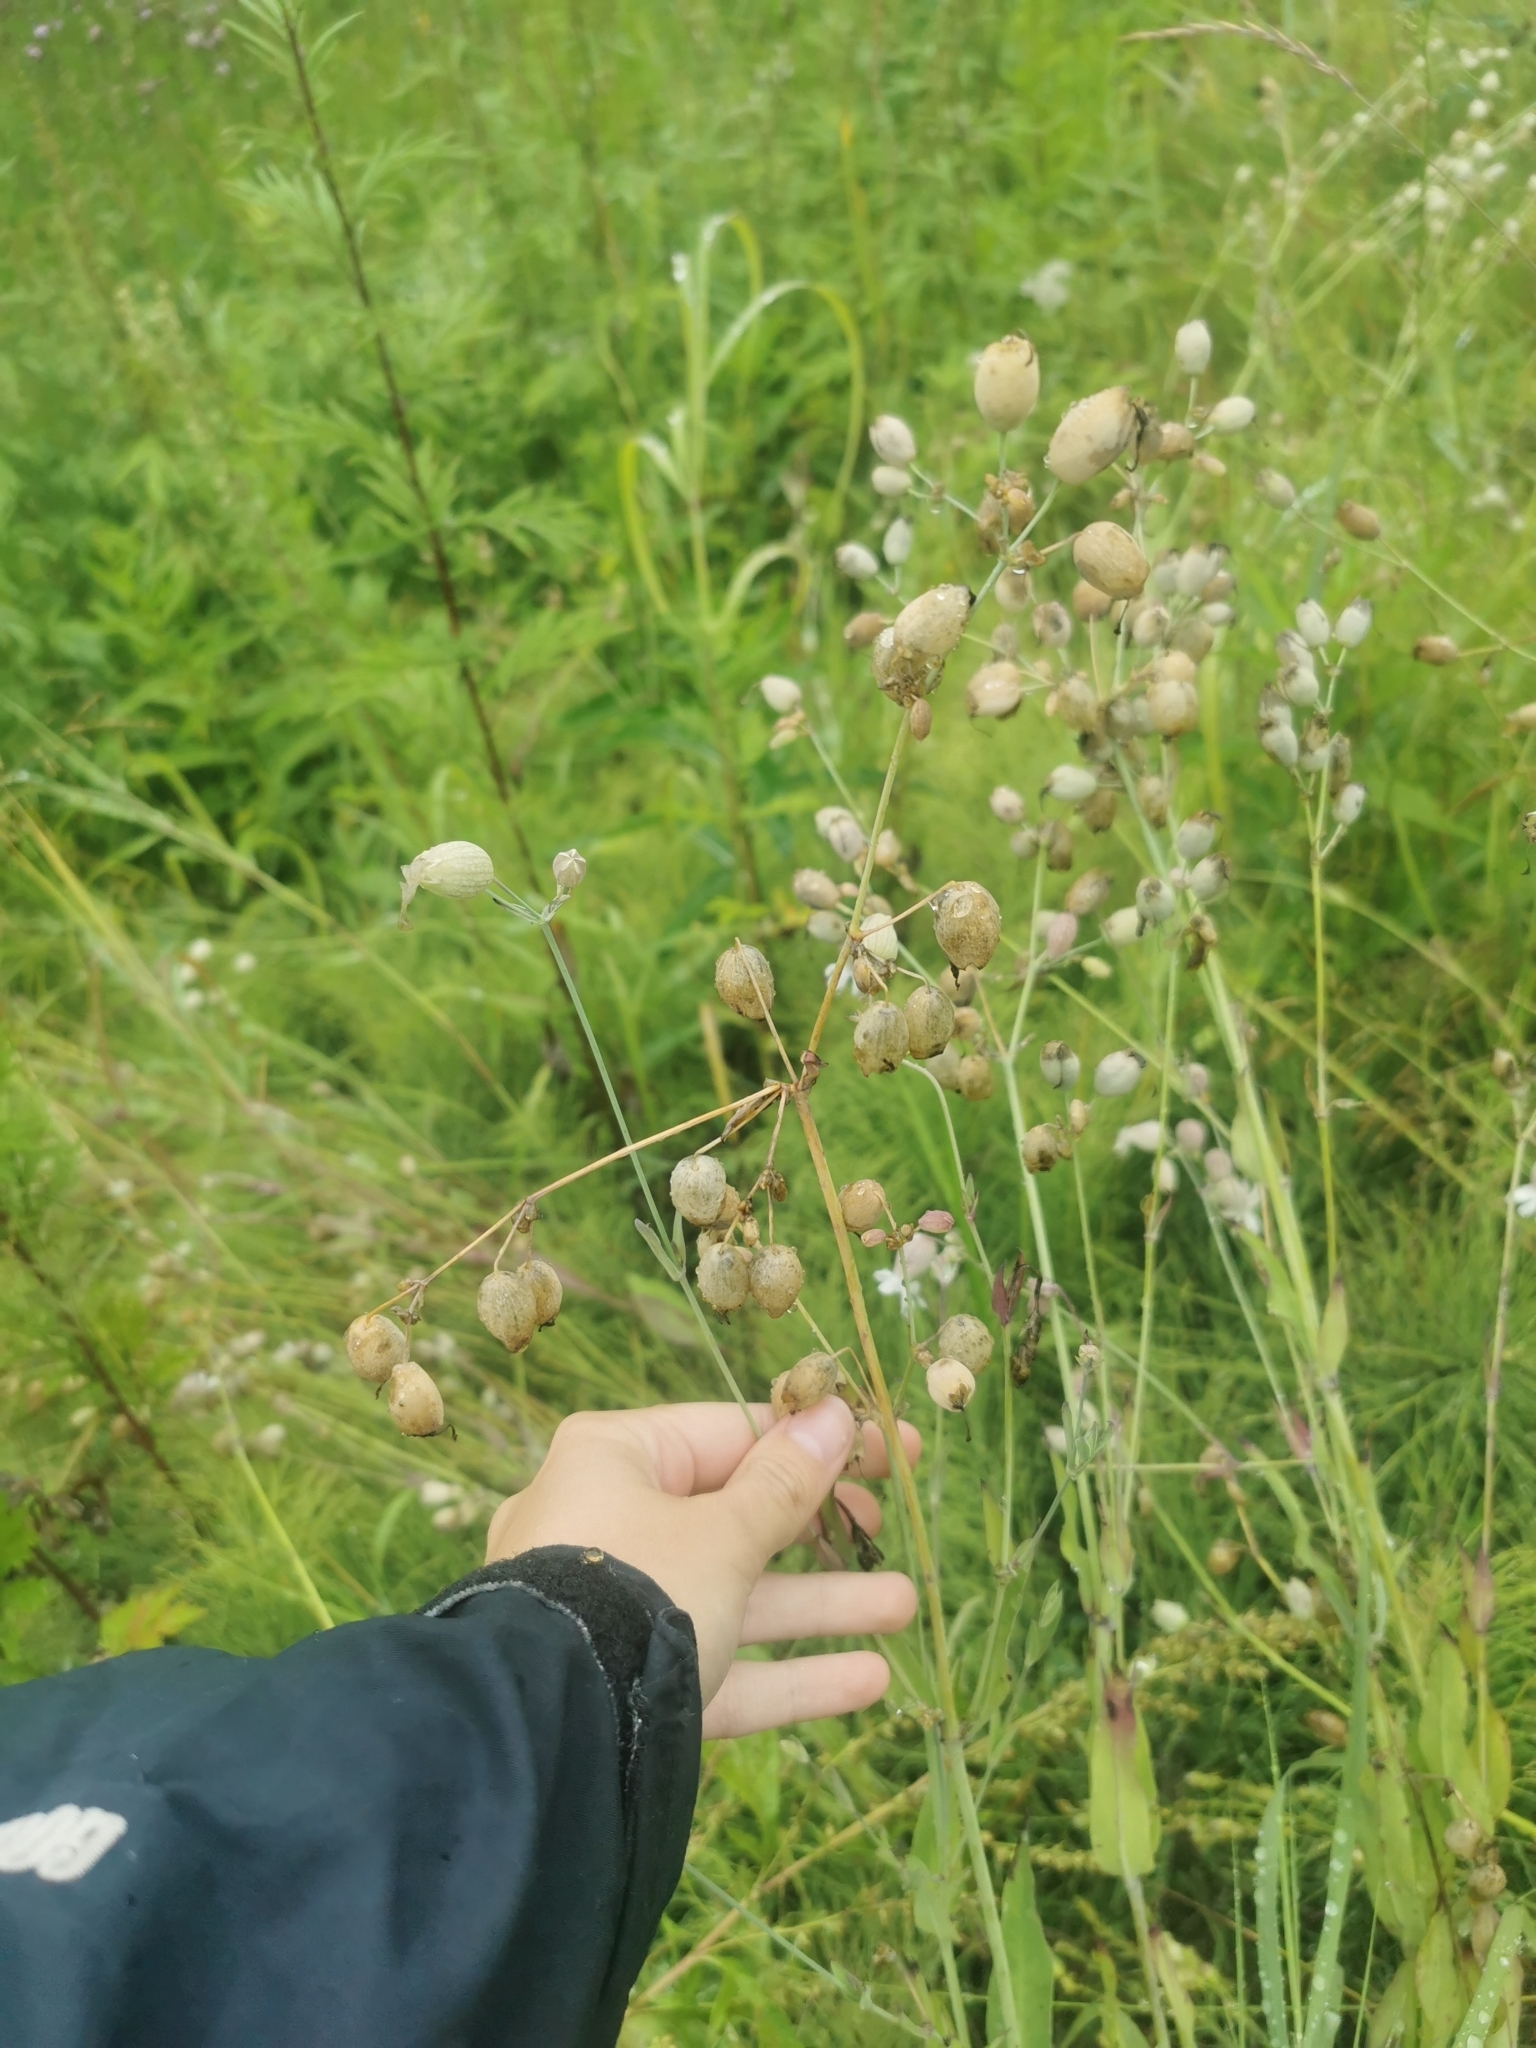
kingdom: Plantae
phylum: Tracheophyta
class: Magnoliopsida
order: Caryophyllales
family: Caryophyllaceae
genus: Silene
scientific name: Silene vulgaris
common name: Bladder campion
